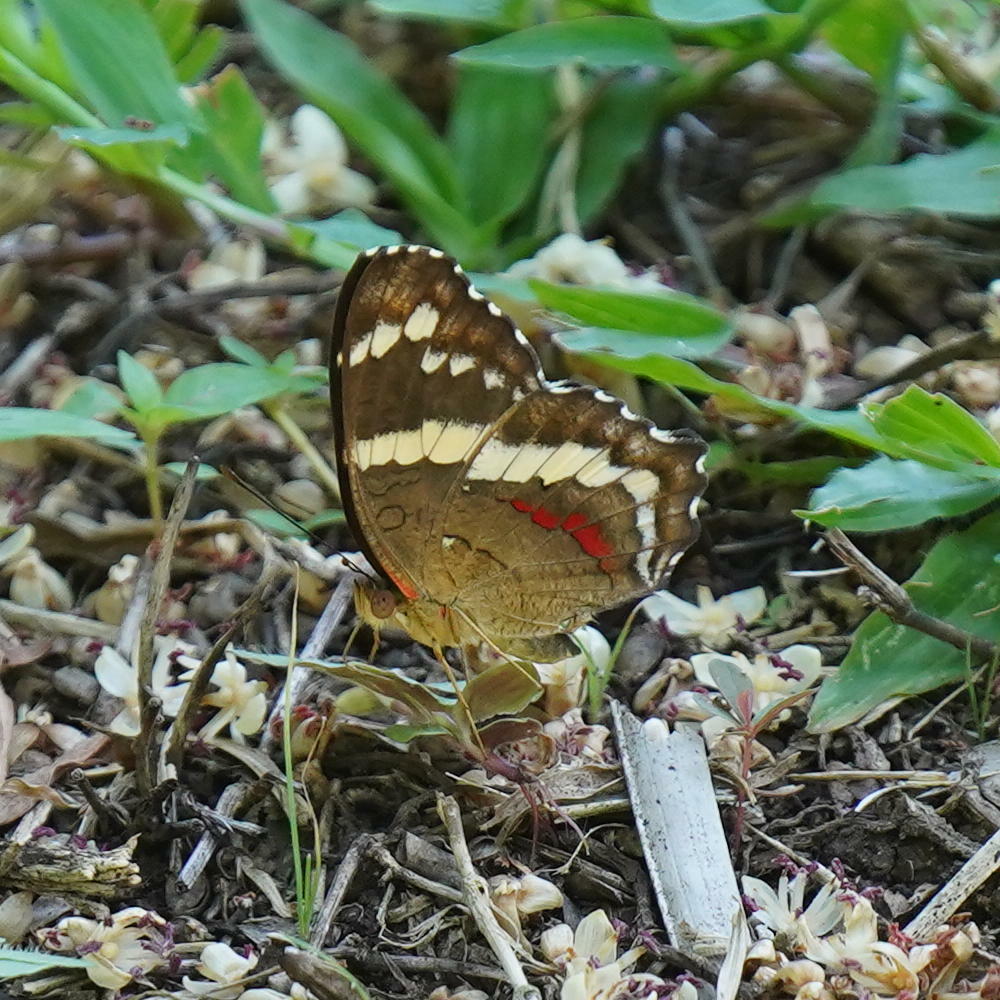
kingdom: Animalia
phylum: Arthropoda
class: Insecta
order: Lepidoptera
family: Nymphalidae
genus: Anartia
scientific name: Anartia fatima
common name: Banded peacock
